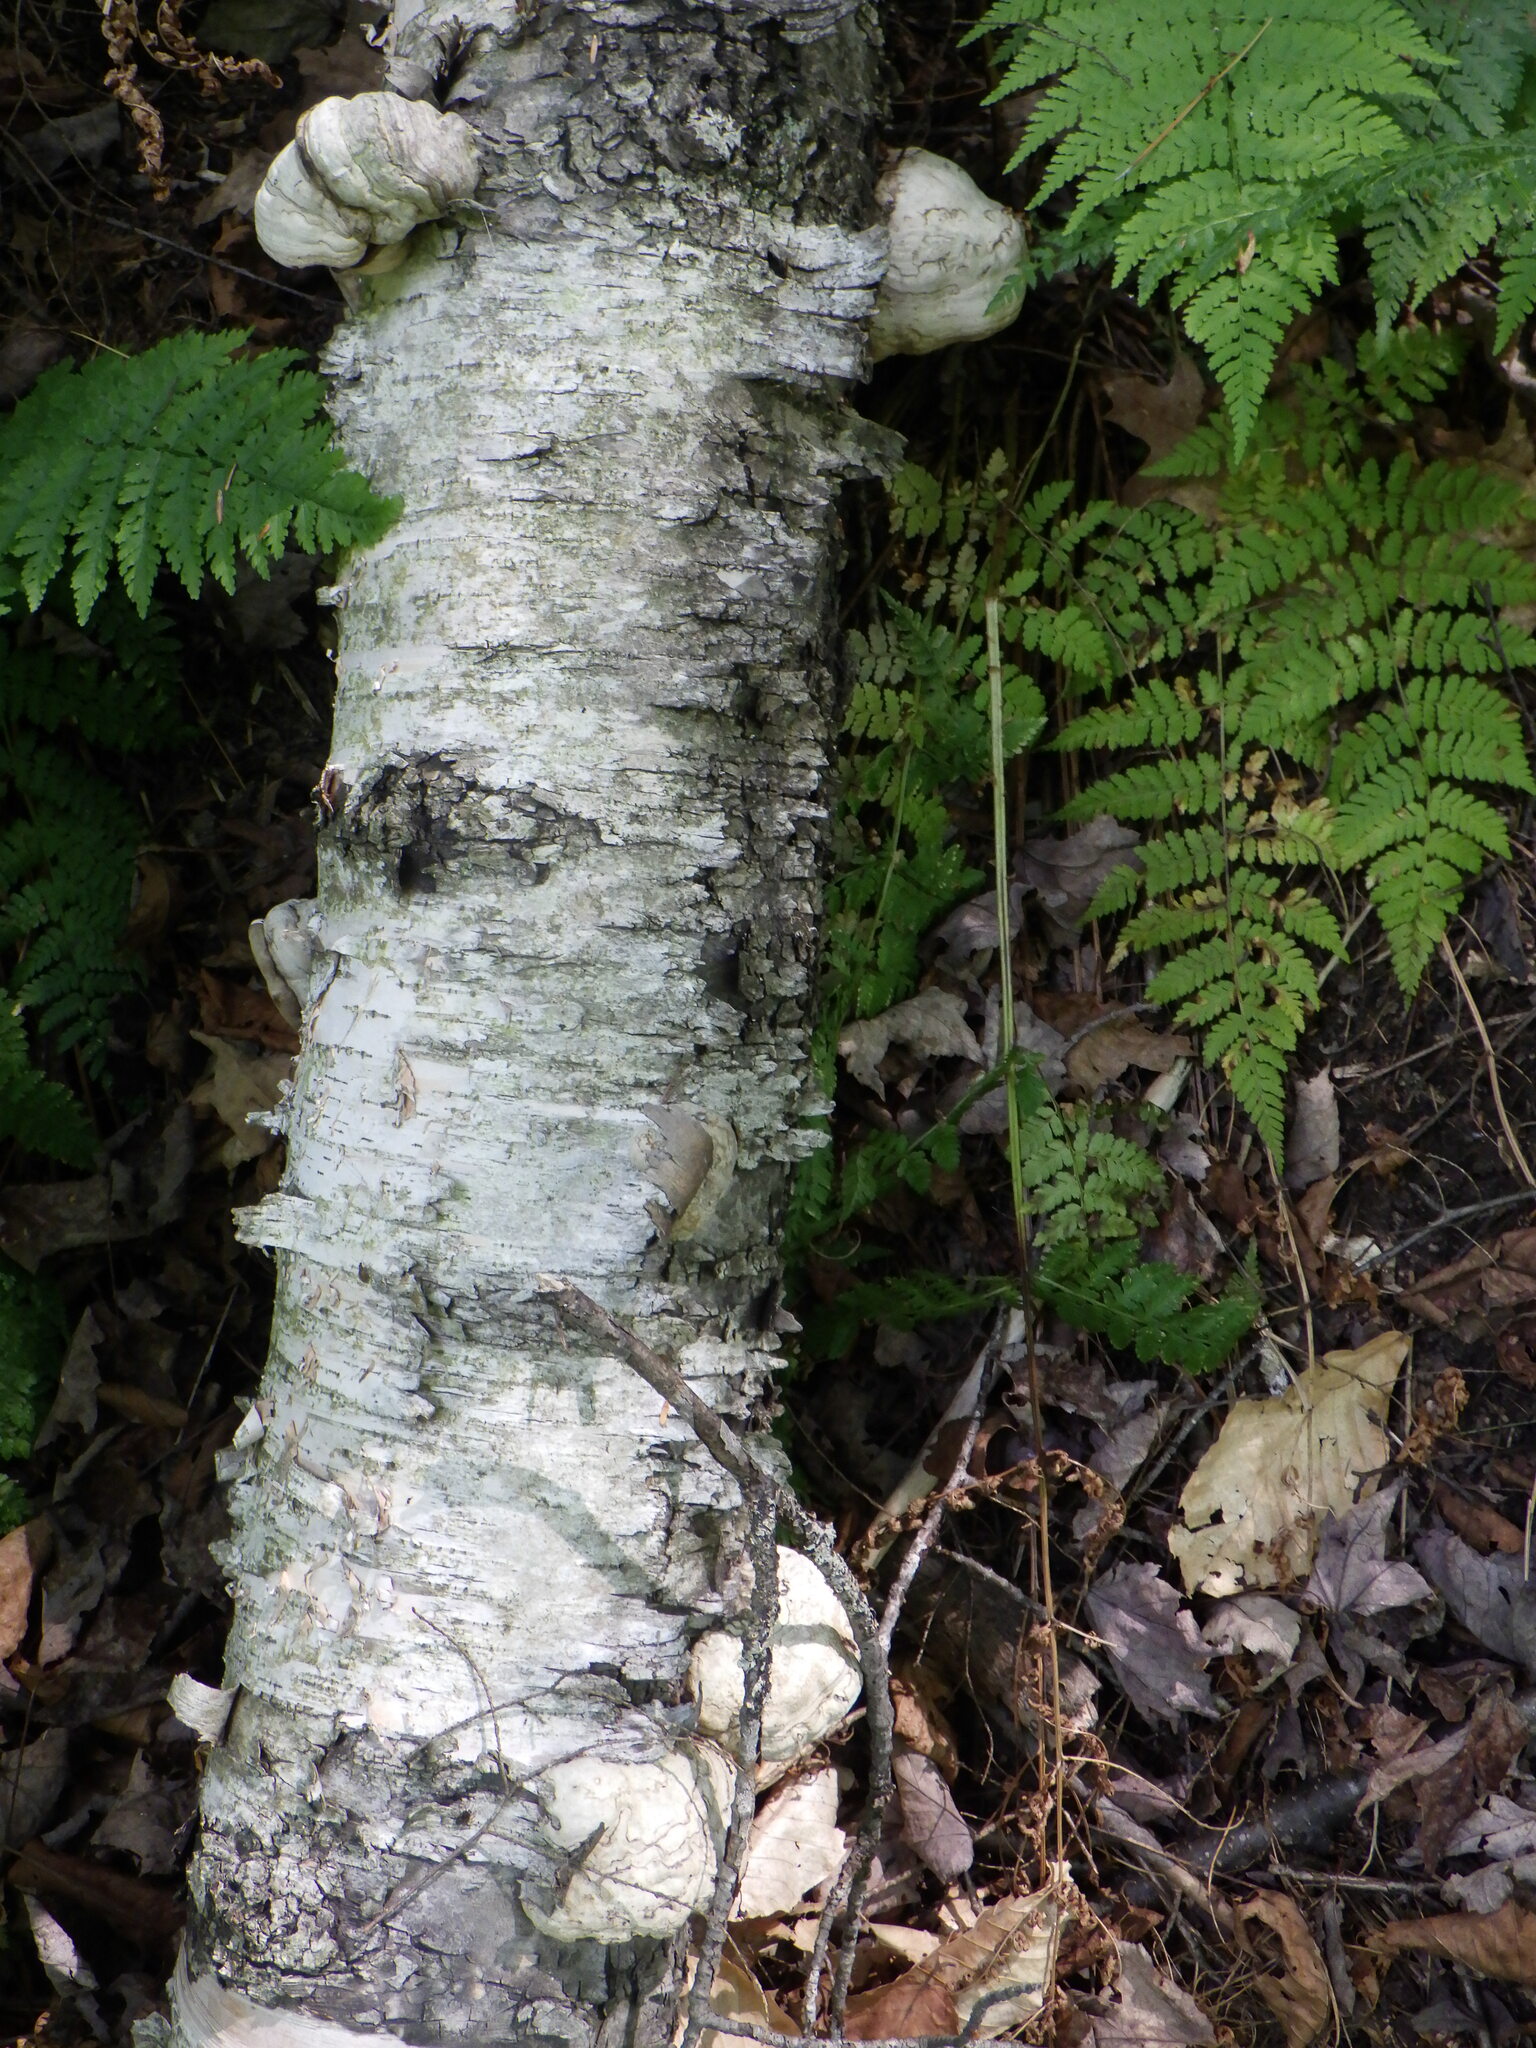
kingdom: Plantae
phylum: Tracheophyta
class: Magnoliopsida
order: Fagales
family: Betulaceae
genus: Betula
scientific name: Betula papyrifera
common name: Paper birch
